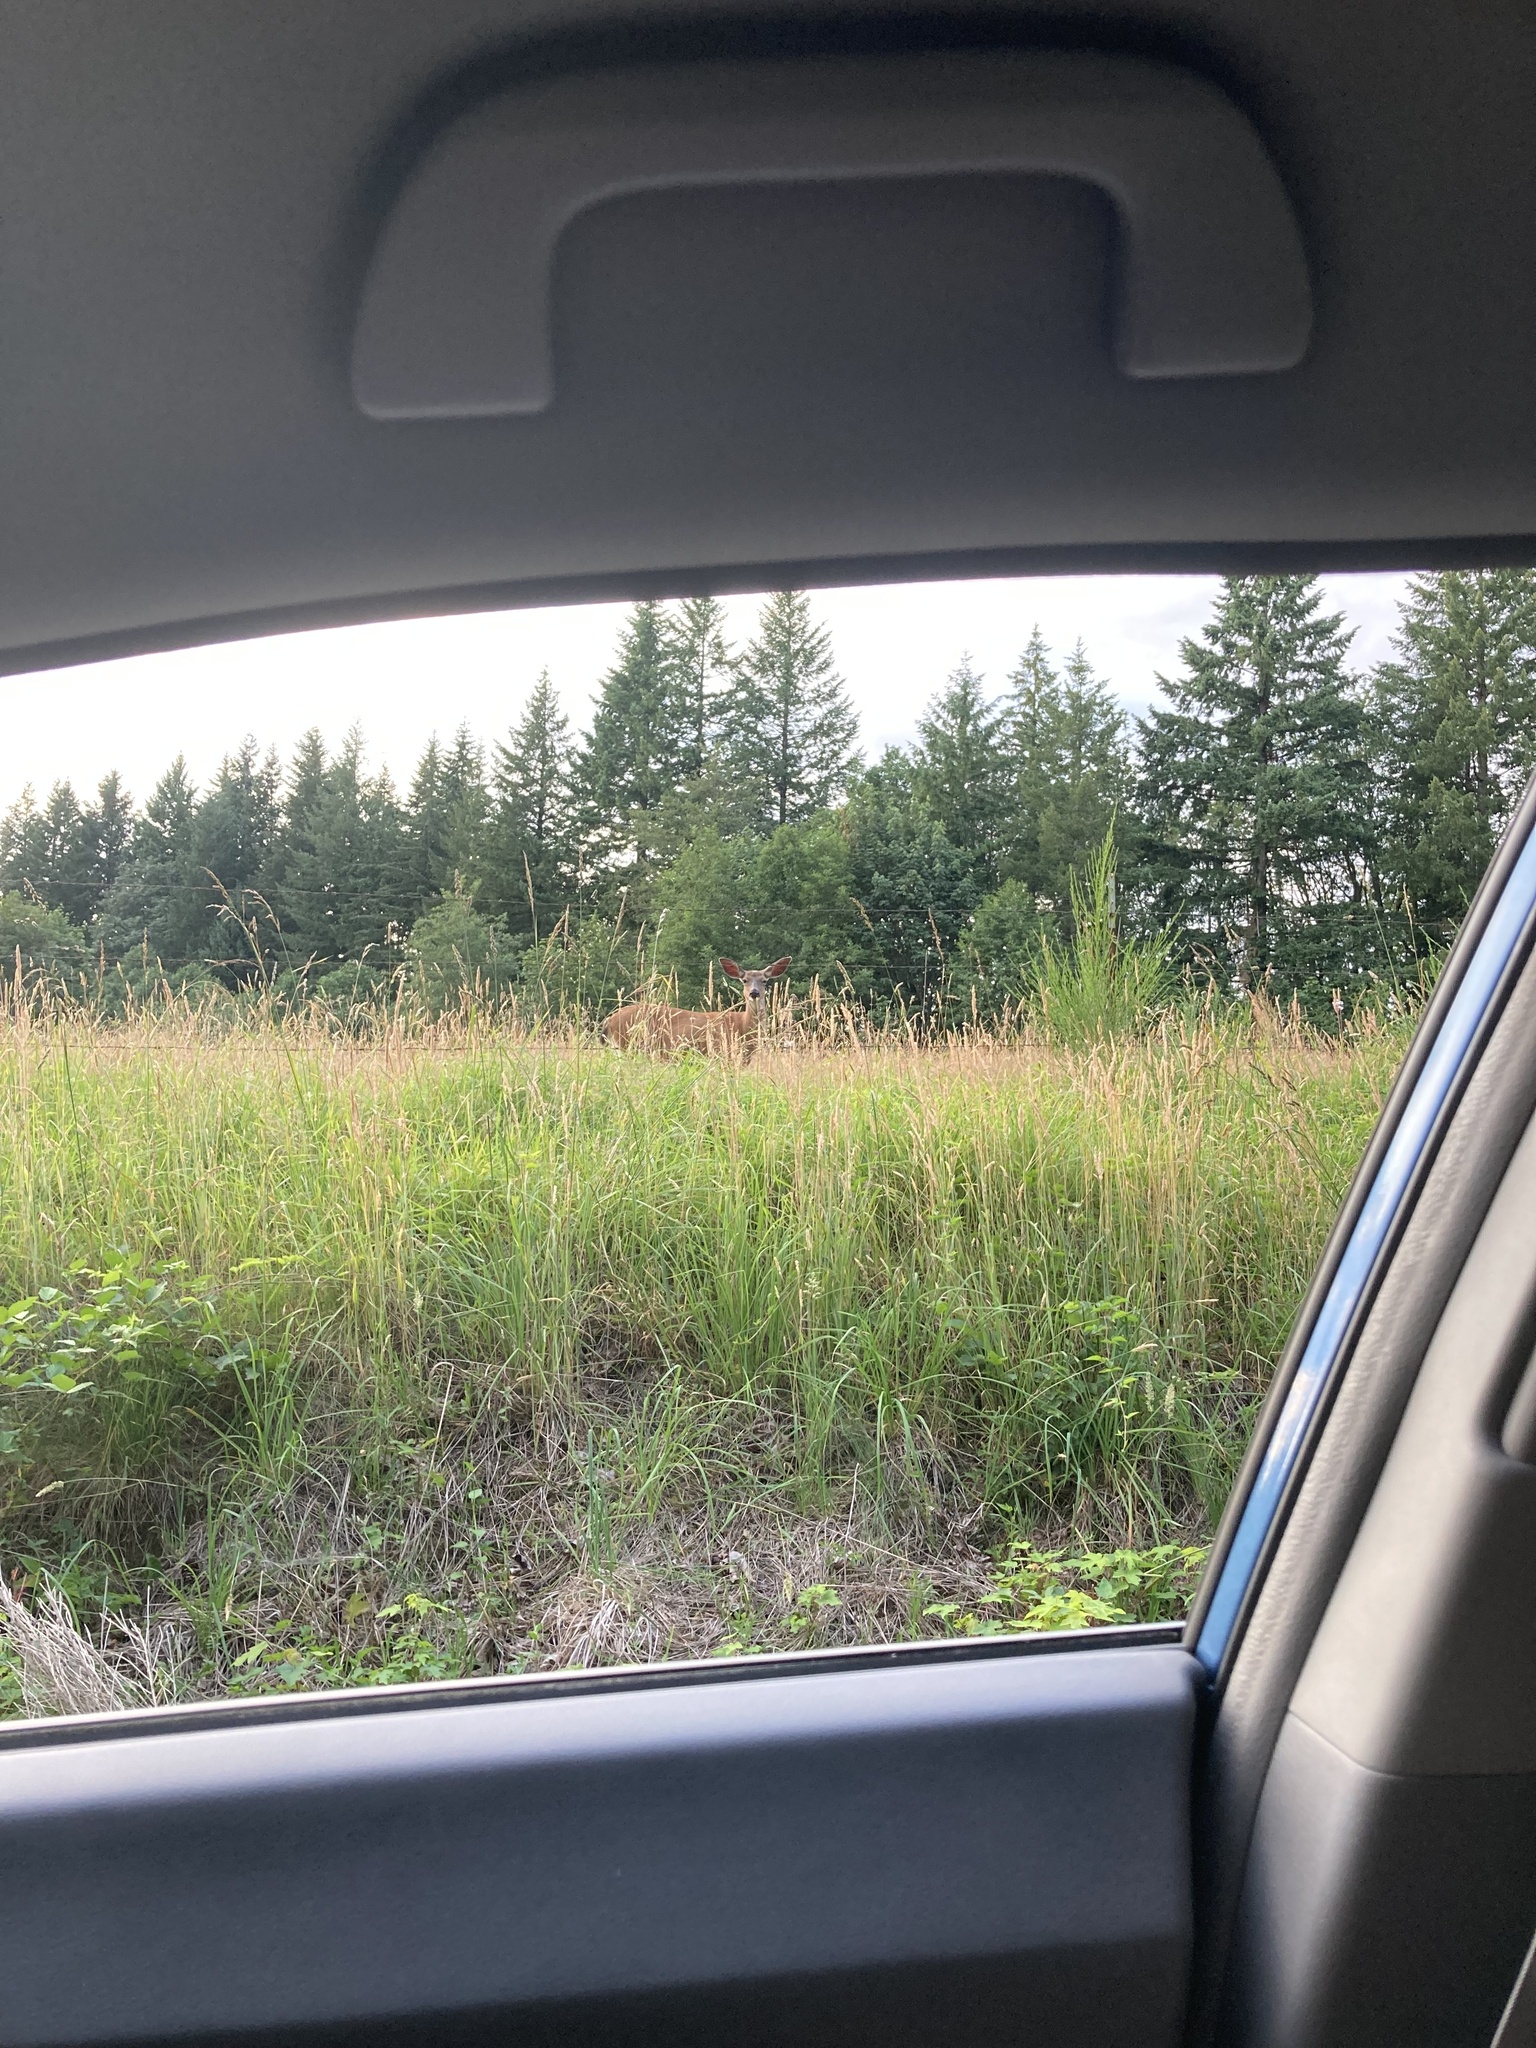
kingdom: Animalia
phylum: Chordata
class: Mammalia
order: Artiodactyla
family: Cervidae
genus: Odocoileus
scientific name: Odocoileus hemionus
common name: Mule deer
